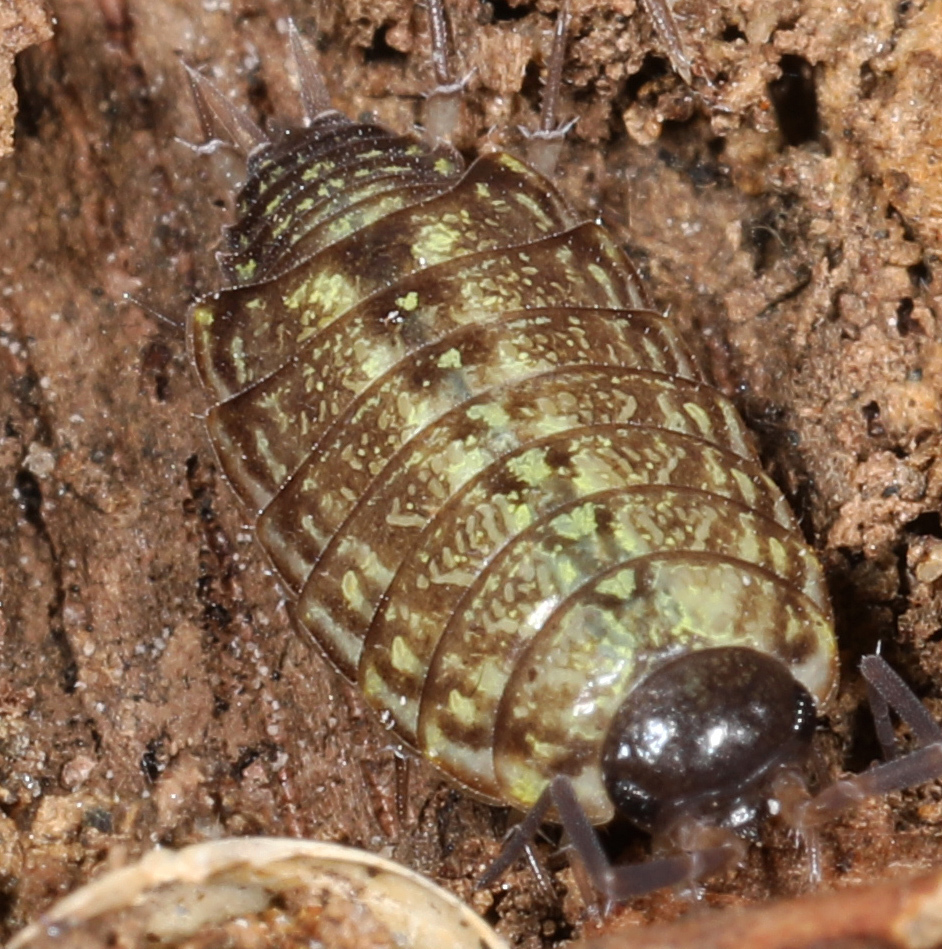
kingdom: Animalia
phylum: Arthropoda
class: Malacostraca
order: Isopoda
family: Philosciidae
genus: Philoscia
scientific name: Philoscia muscorum
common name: Common striped woodlouse
